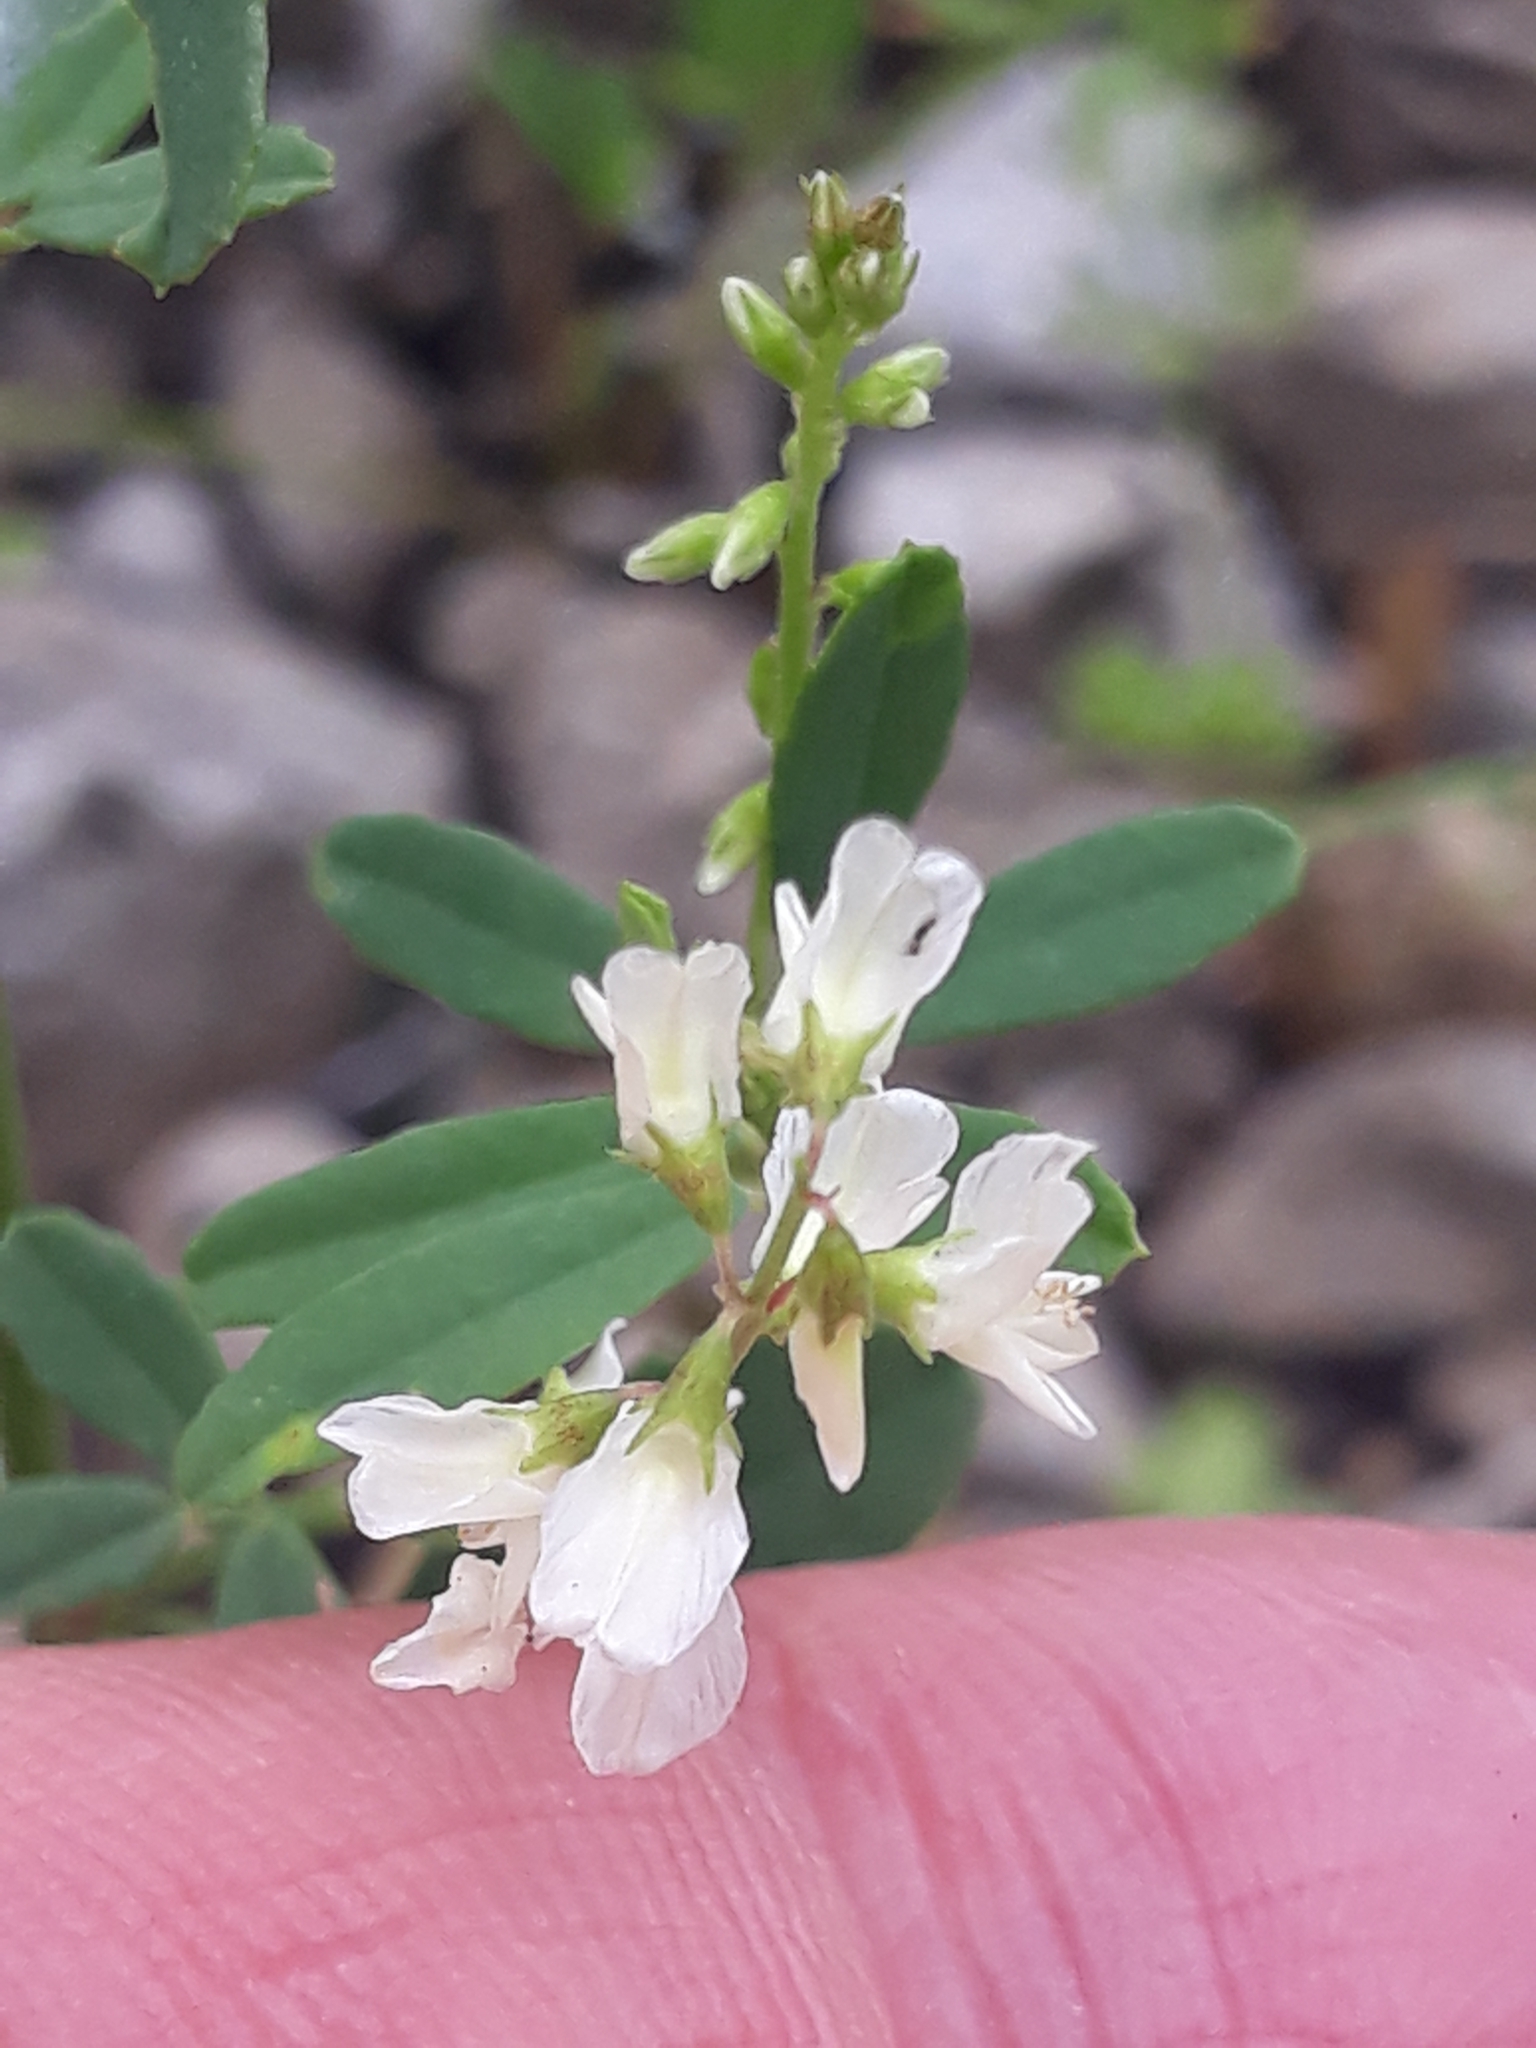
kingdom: Plantae
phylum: Tracheophyta
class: Magnoliopsida
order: Fabales
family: Fabaceae
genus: Melilotus
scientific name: Melilotus albus
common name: White melilot
